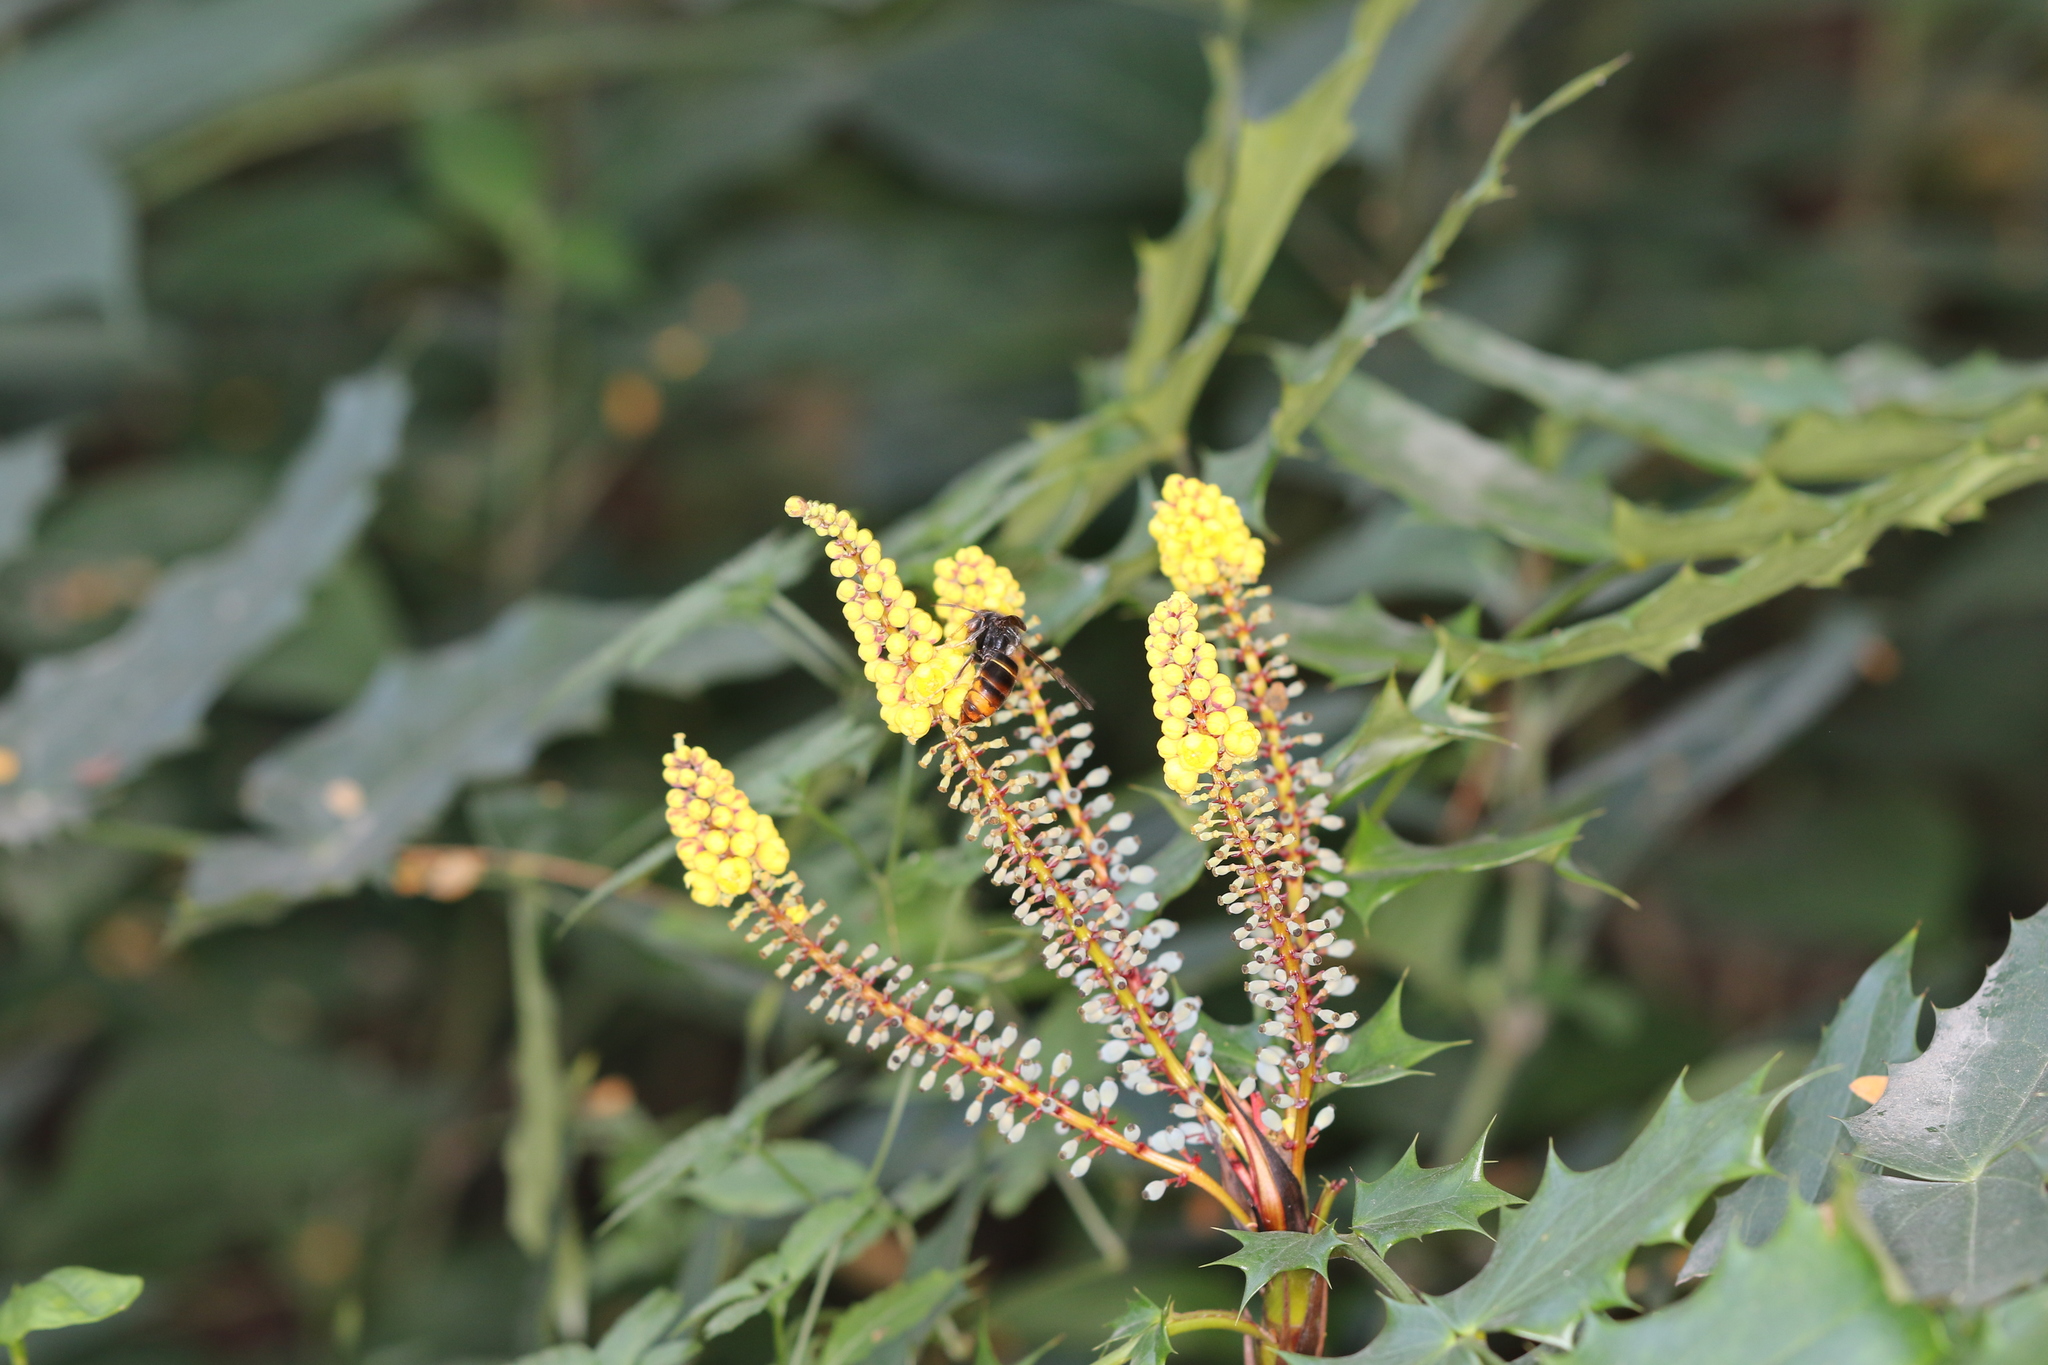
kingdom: Animalia
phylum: Arthropoda
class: Insecta
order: Hymenoptera
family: Vespidae
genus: Vespa
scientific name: Vespa velutina
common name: Asian hornet
